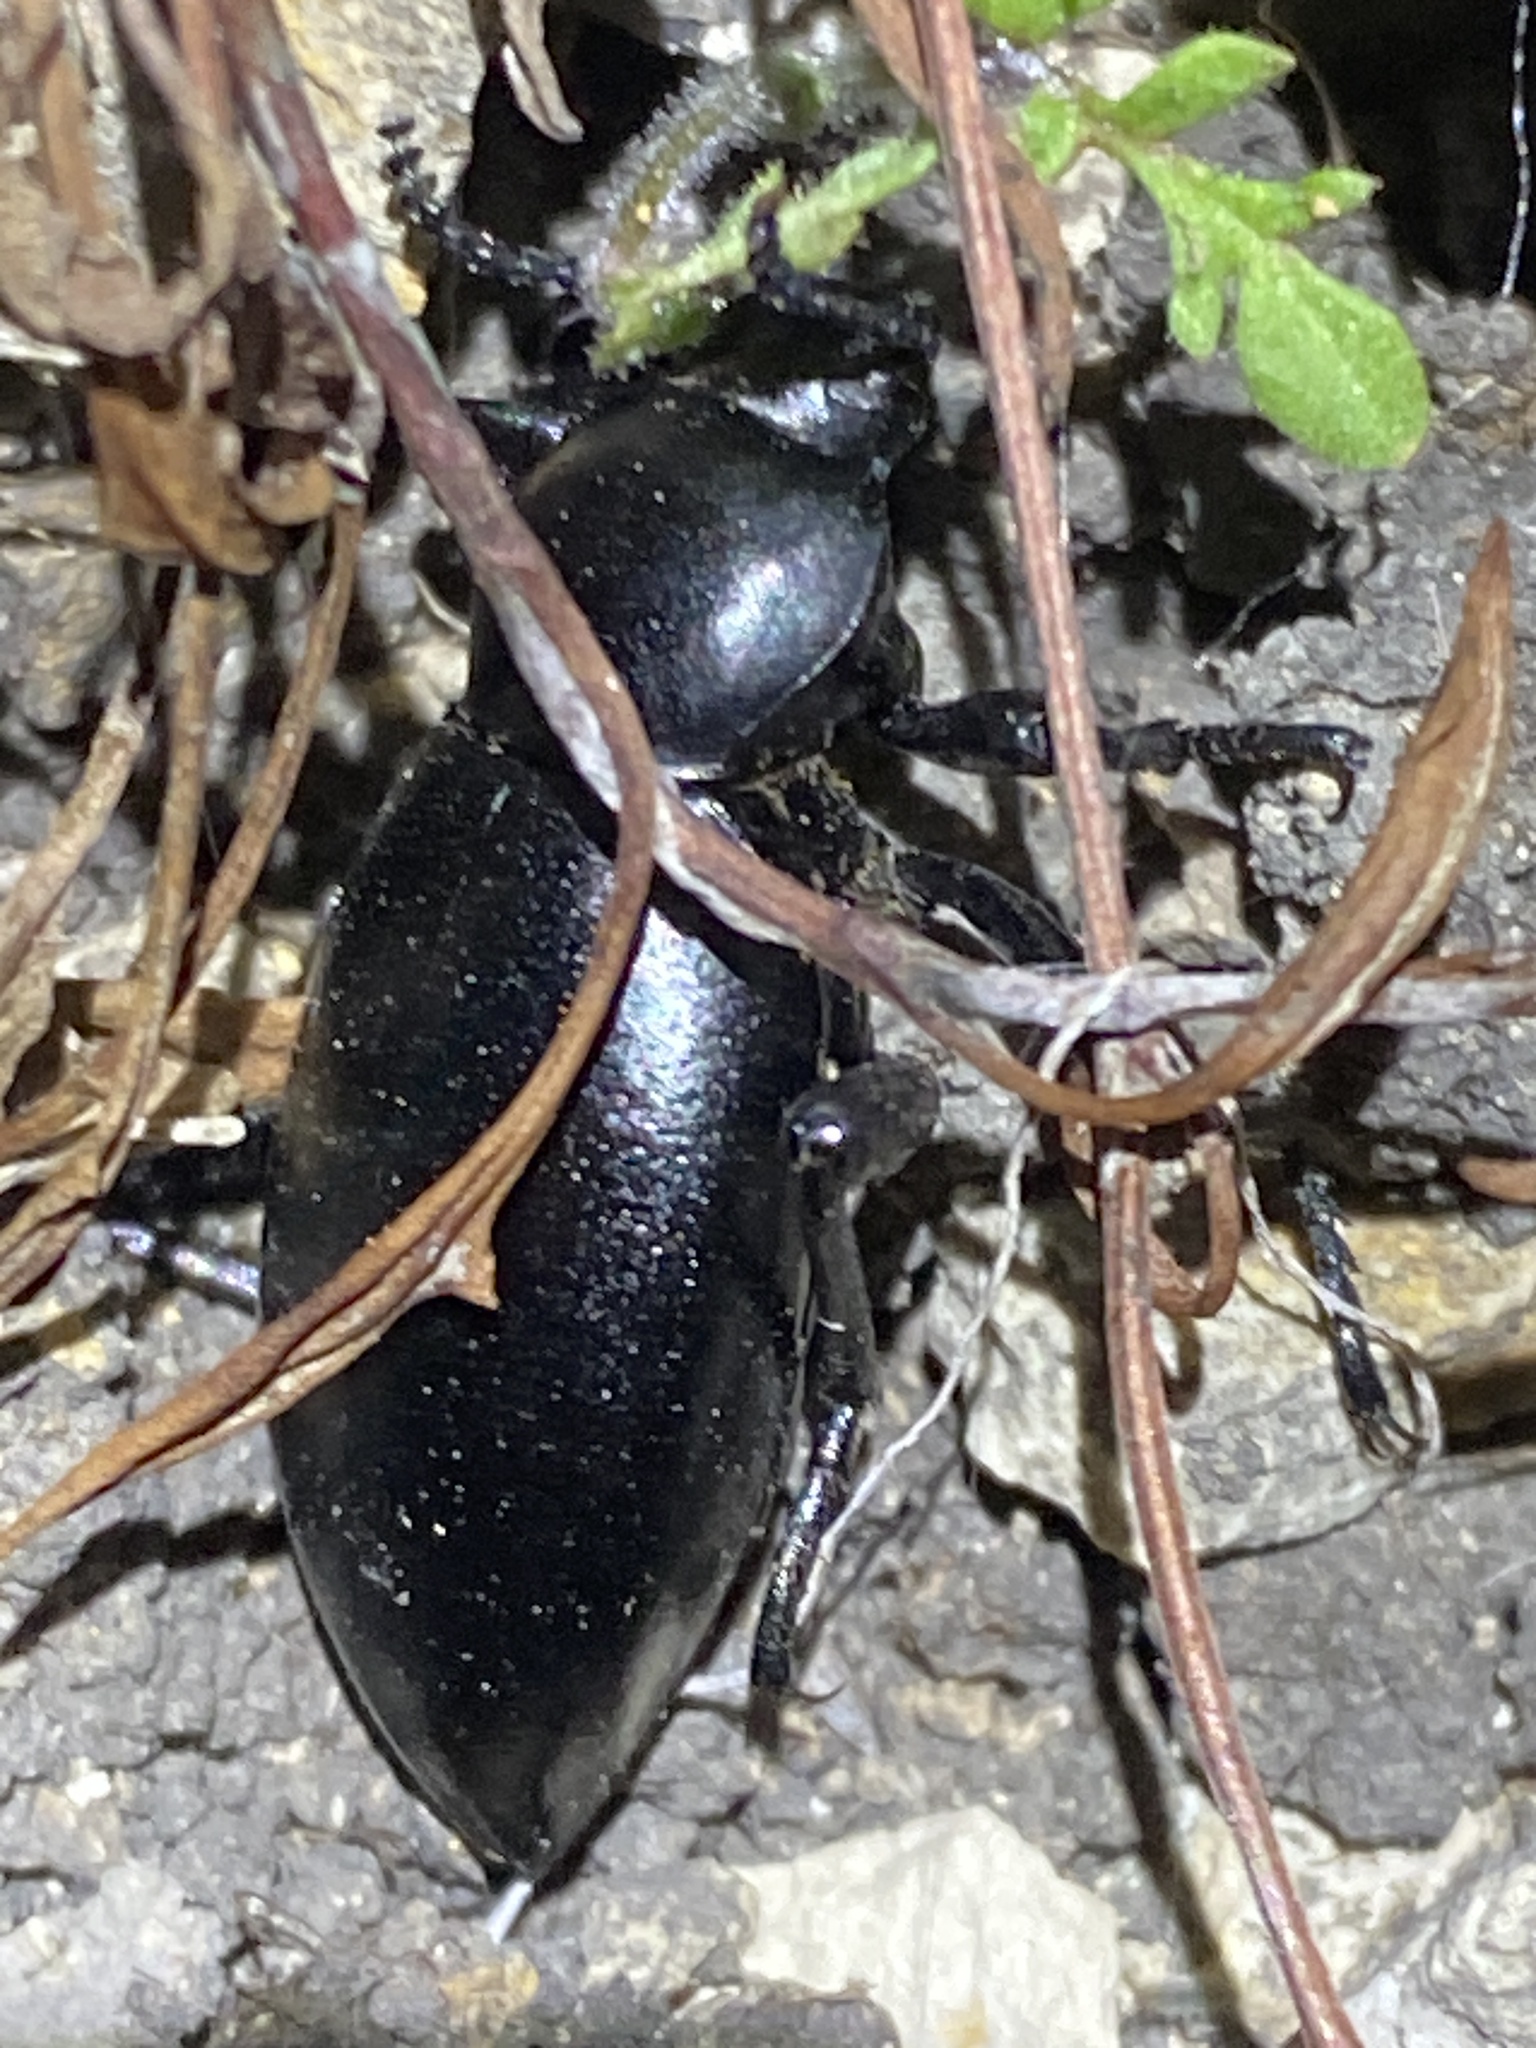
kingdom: Animalia
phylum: Arthropoda
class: Insecta
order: Coleoptera
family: Tenebrionidae
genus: Eleodes
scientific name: Eleodes dentipes
